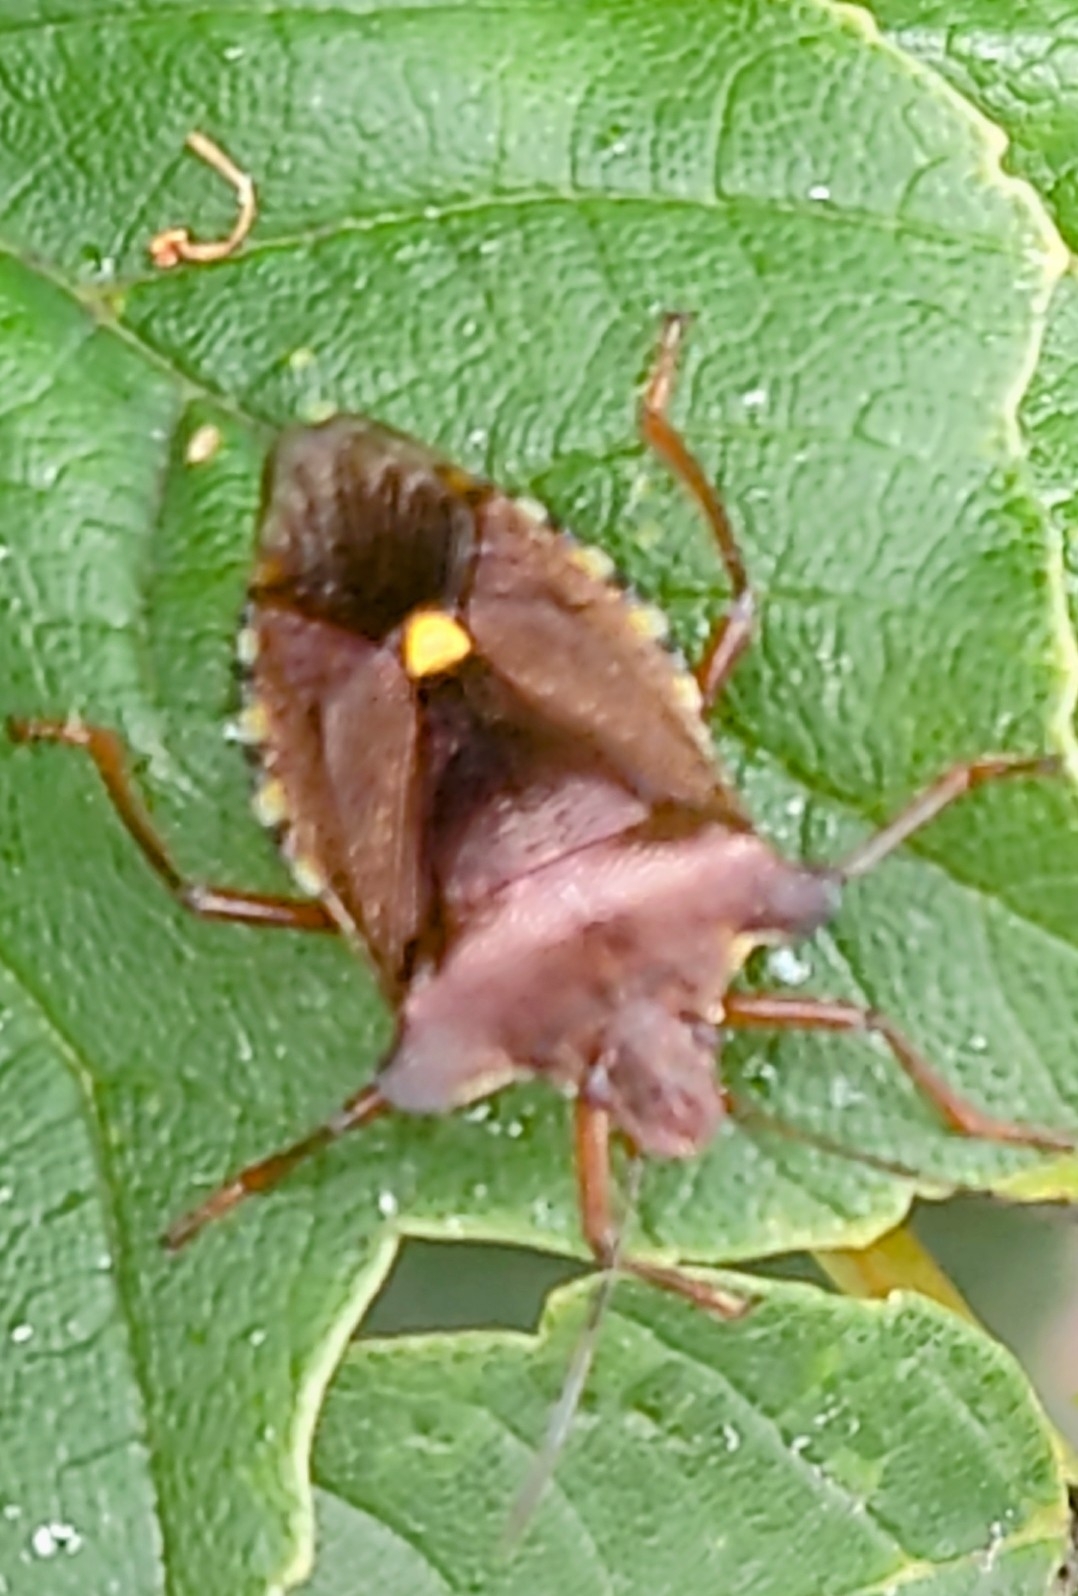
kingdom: Animalia
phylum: Arthropoda
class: Insecta
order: Hemiptera
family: Pentatomidae
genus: Pentatoma
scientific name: Pentatoma rufipes
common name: Forest bug
